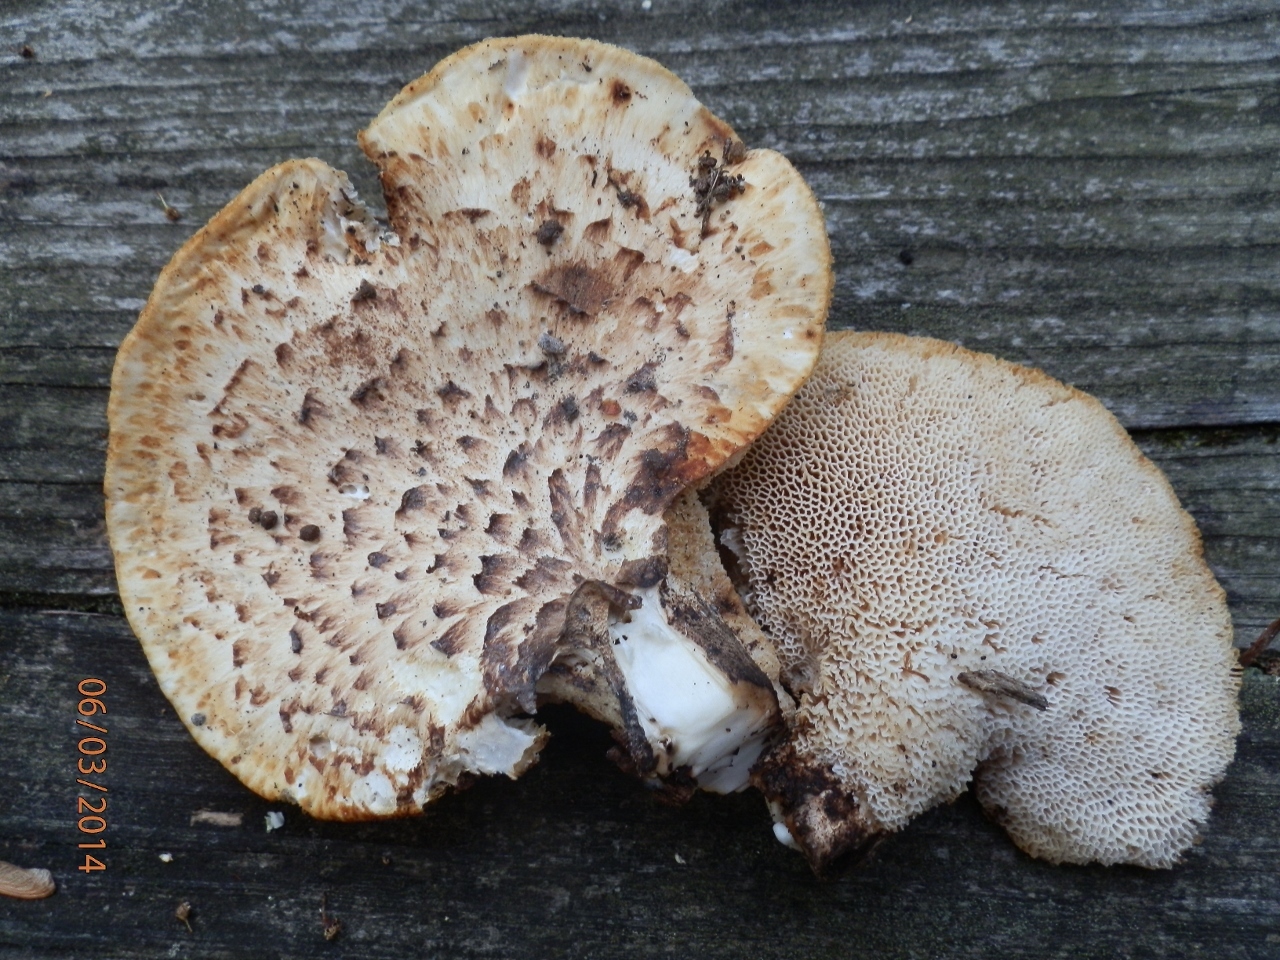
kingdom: Fungi
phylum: Basidiomycota
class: Agaricomycetes
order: Polyporales
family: Polyporaceae
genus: Cerioporus
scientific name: Cerioporus squamosus
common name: Dryad's saddle
